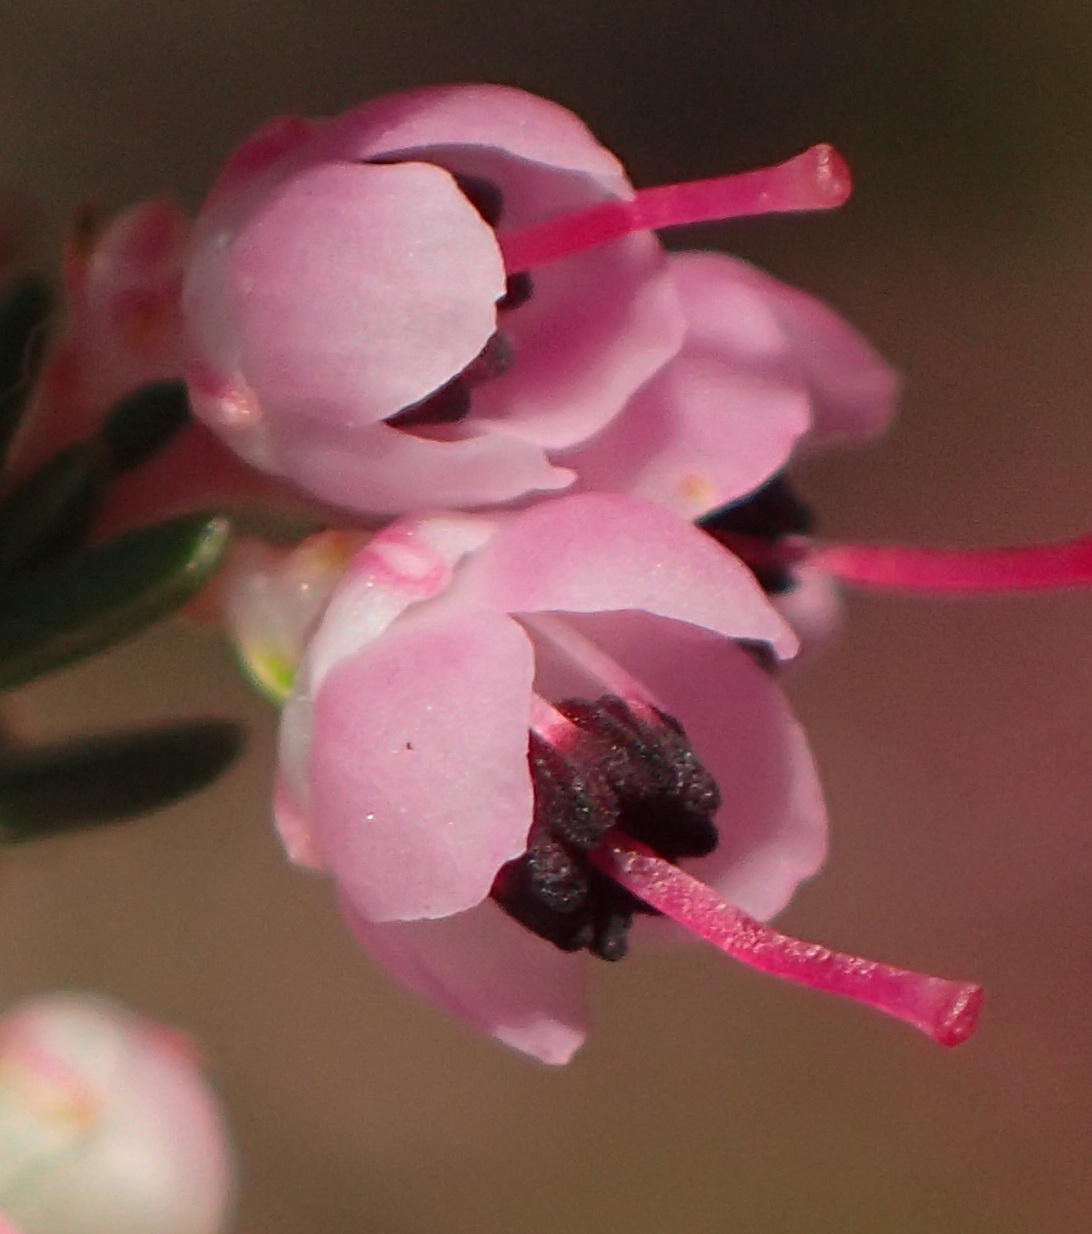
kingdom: Plantae
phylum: Tracheophyta
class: Magnoliopsida
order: Ericales
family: Ericaceae
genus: Erica
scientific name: Erica sparsa
